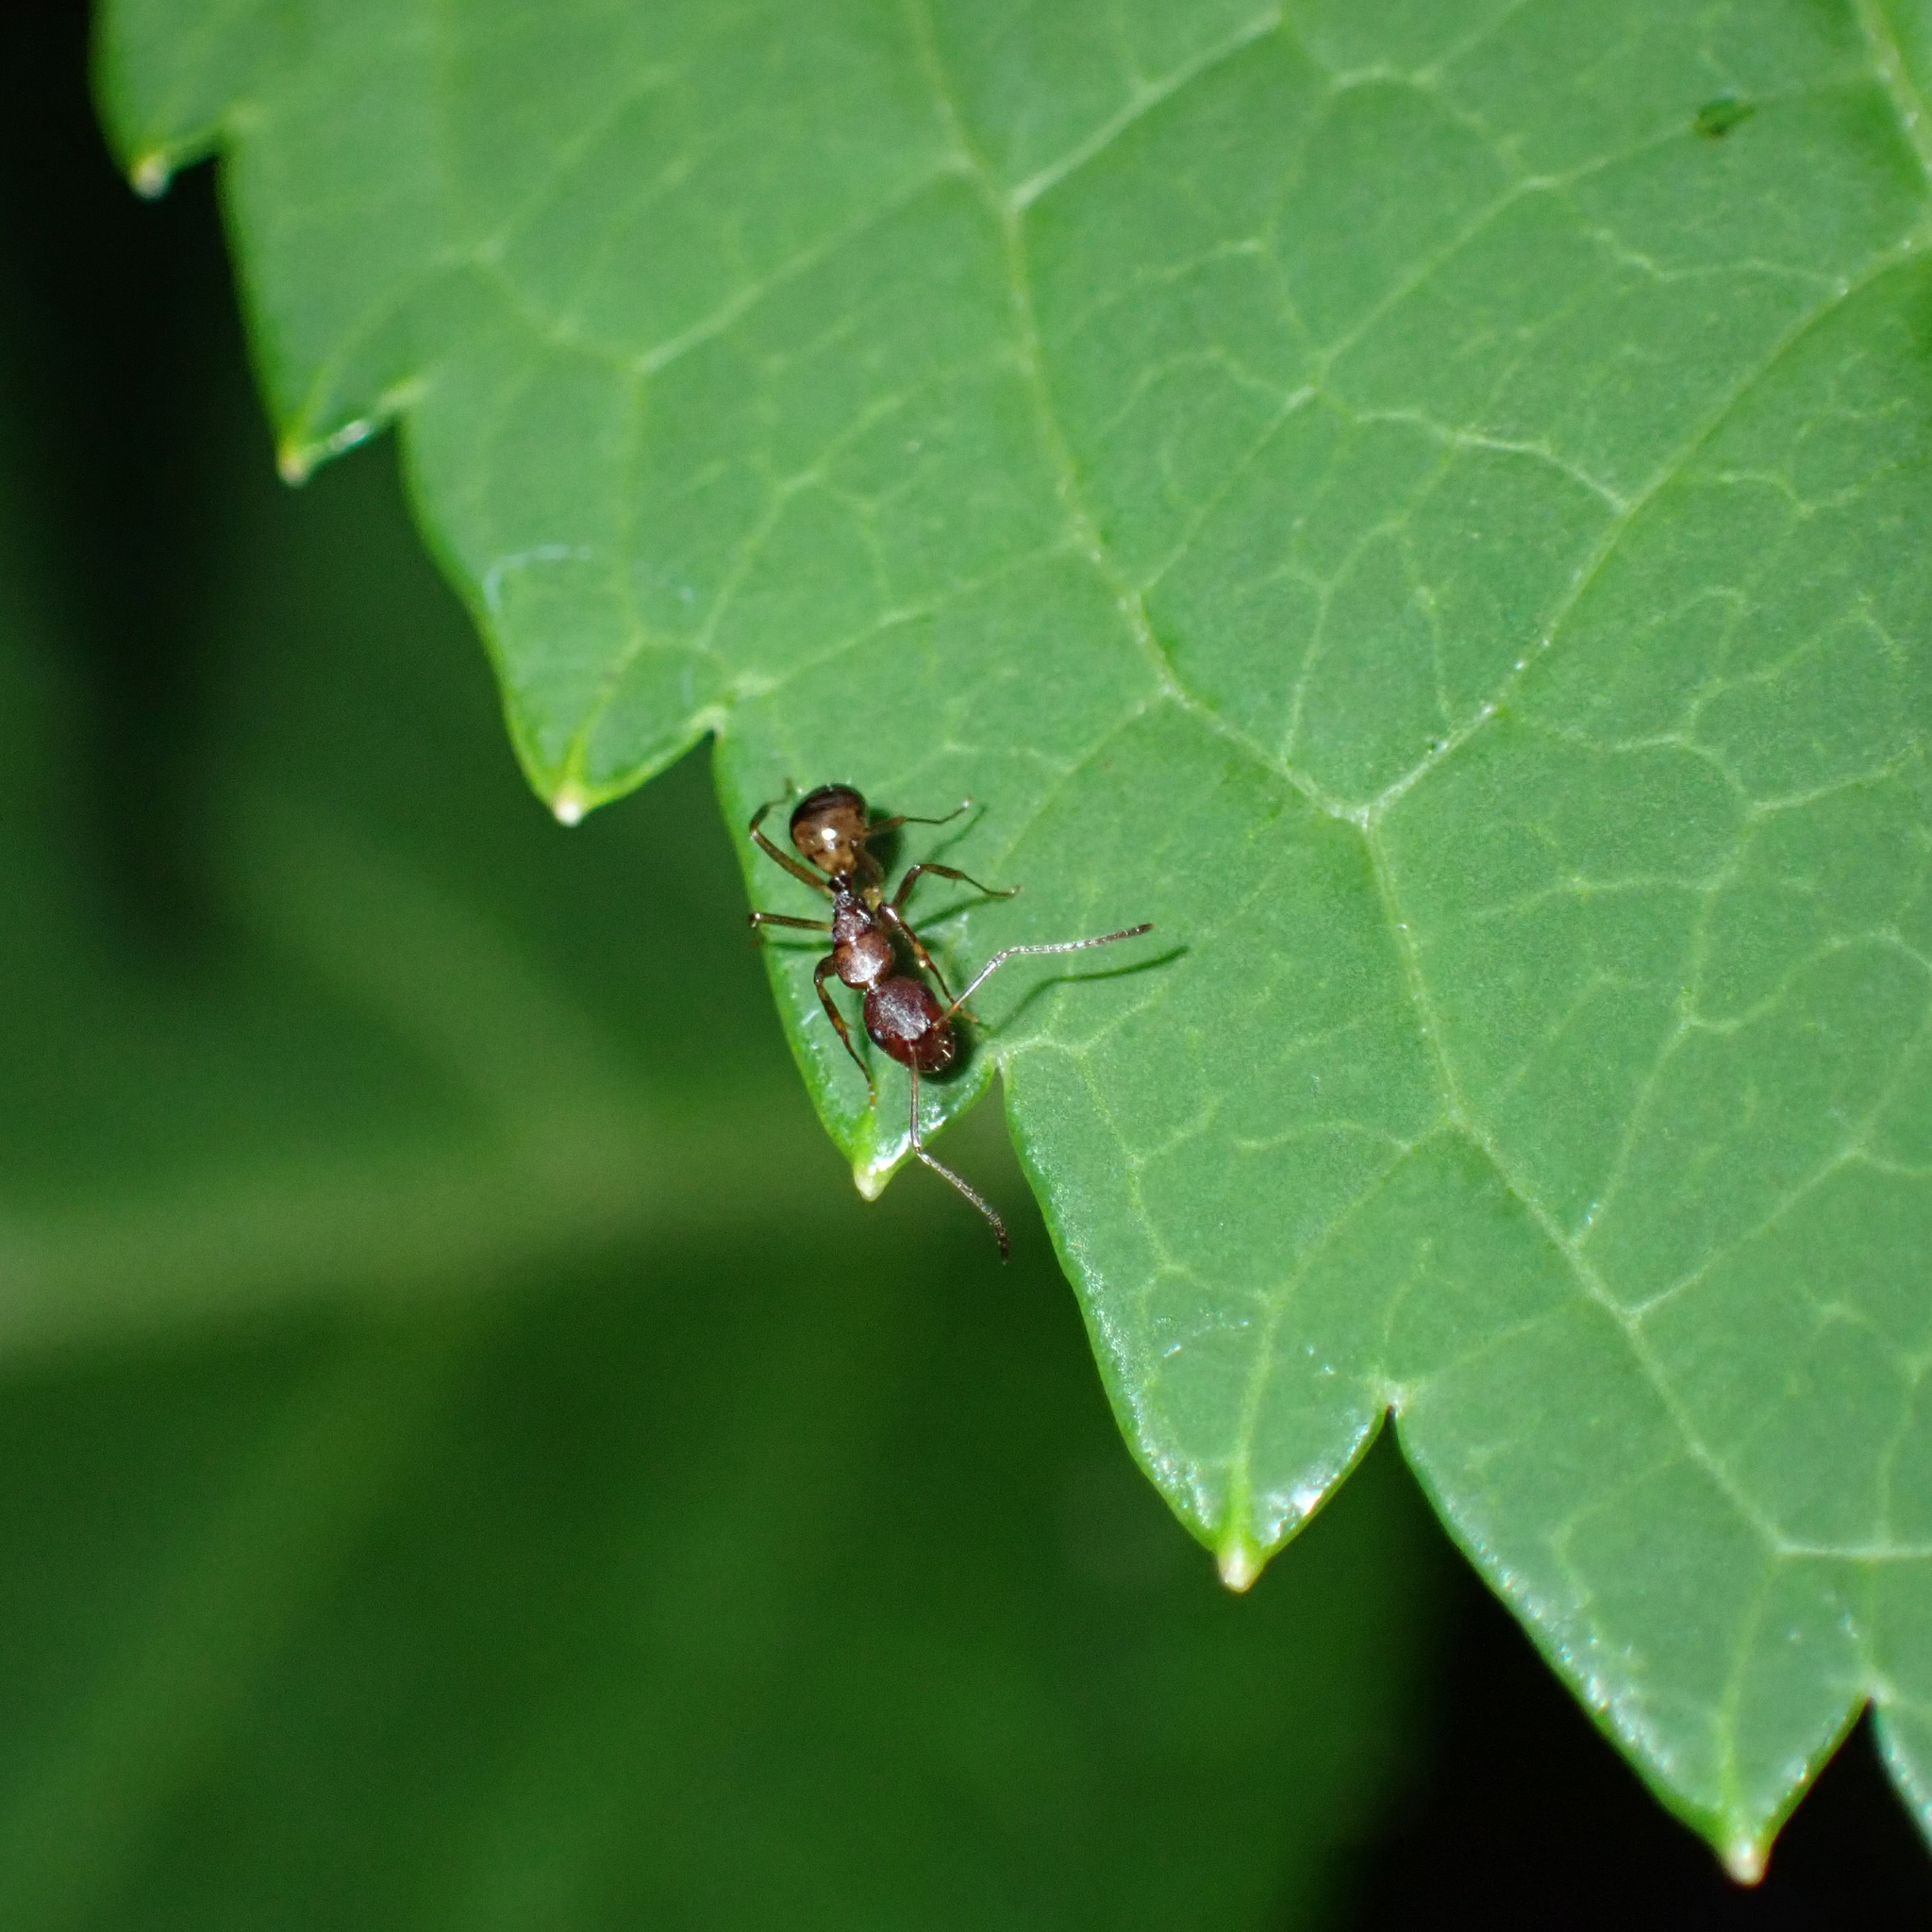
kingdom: Animalia
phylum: Arthropoda
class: Insecta
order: Hymenoptera
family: Formicidae
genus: Camponotus
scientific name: Camponotus subbarbatus
